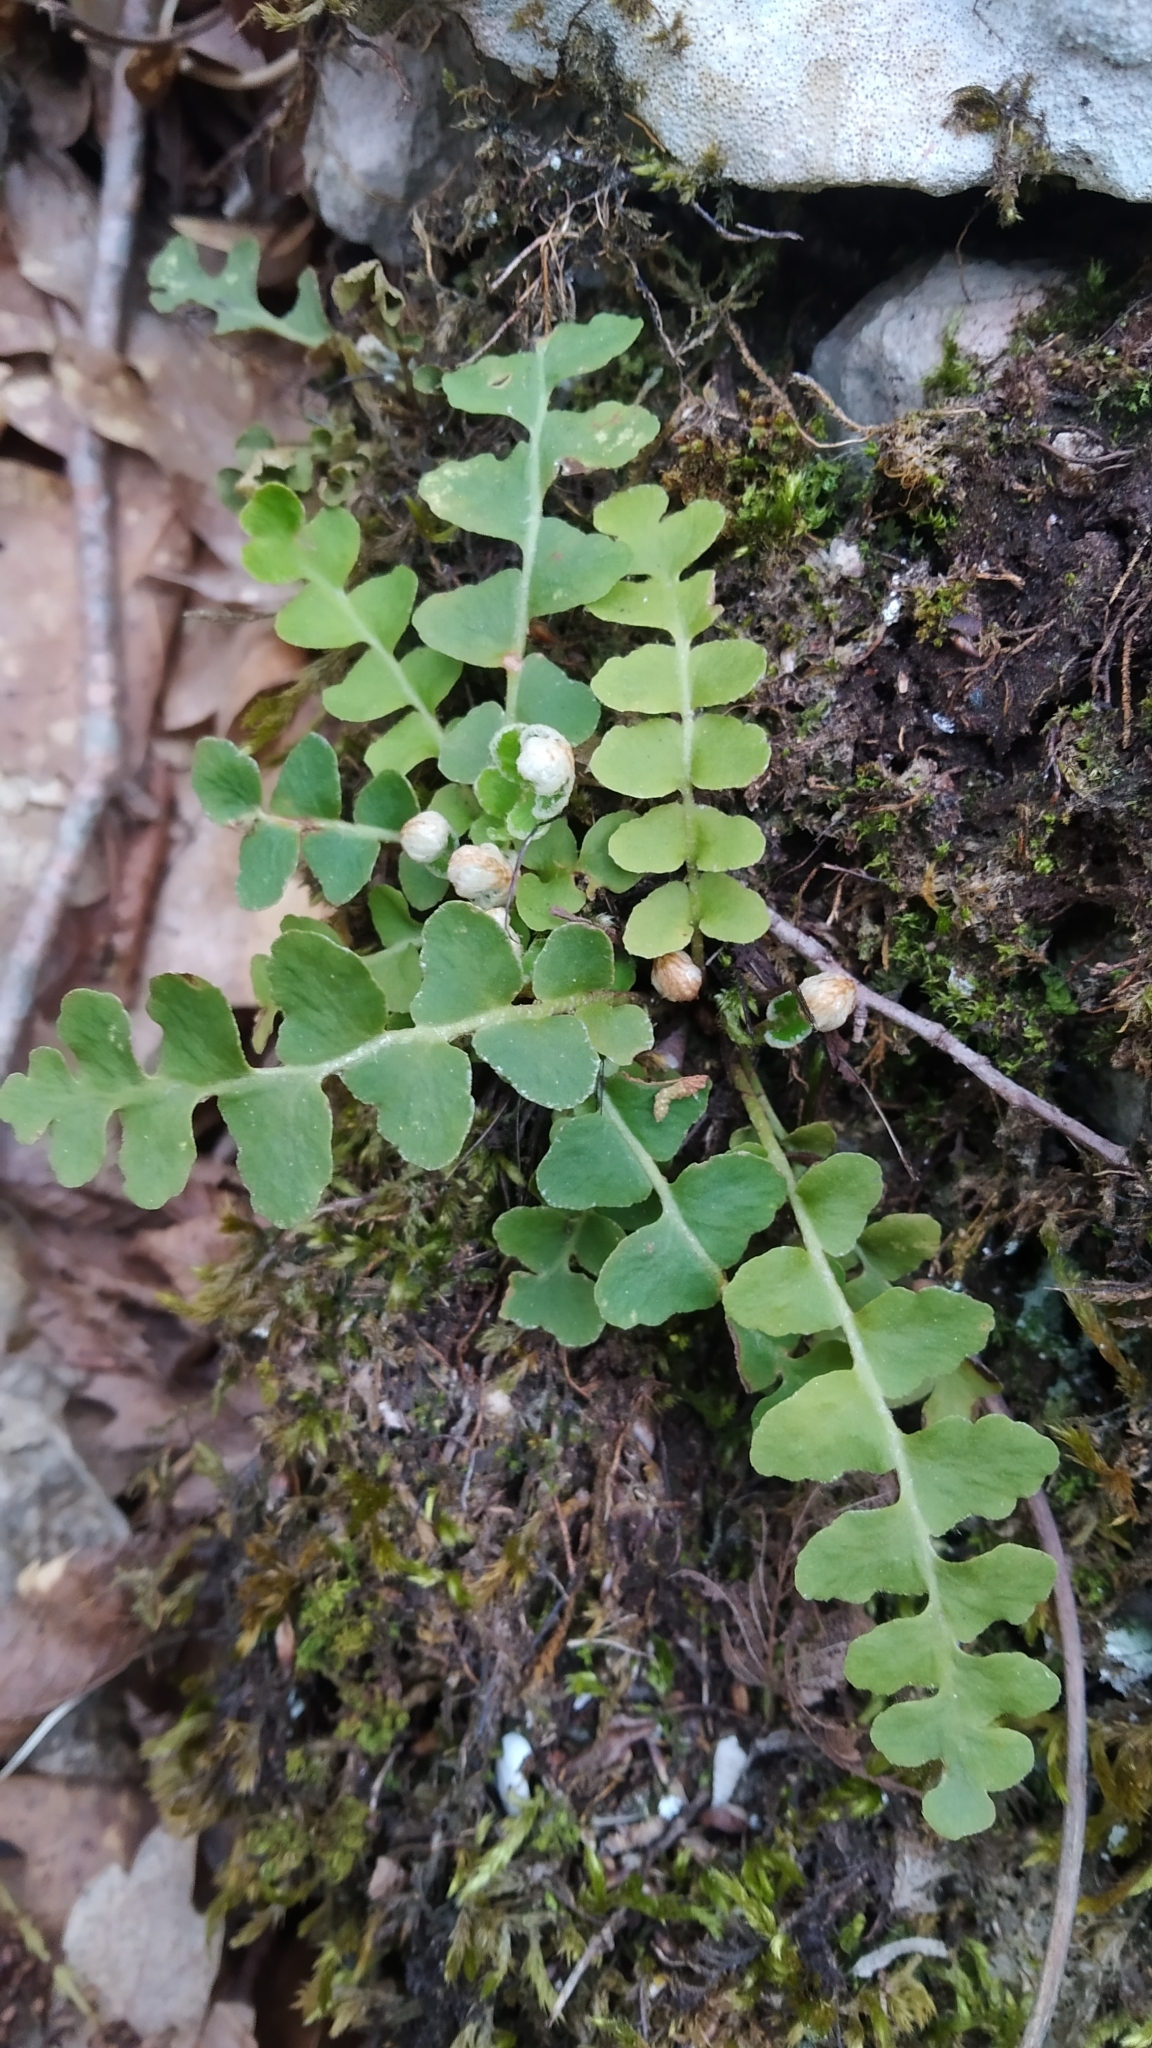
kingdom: Plantae
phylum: Tracheophyta
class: Polypodiopsida
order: Polypodiales
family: Aspleniaceae
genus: Asplenium
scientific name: Asplenium ceterach
